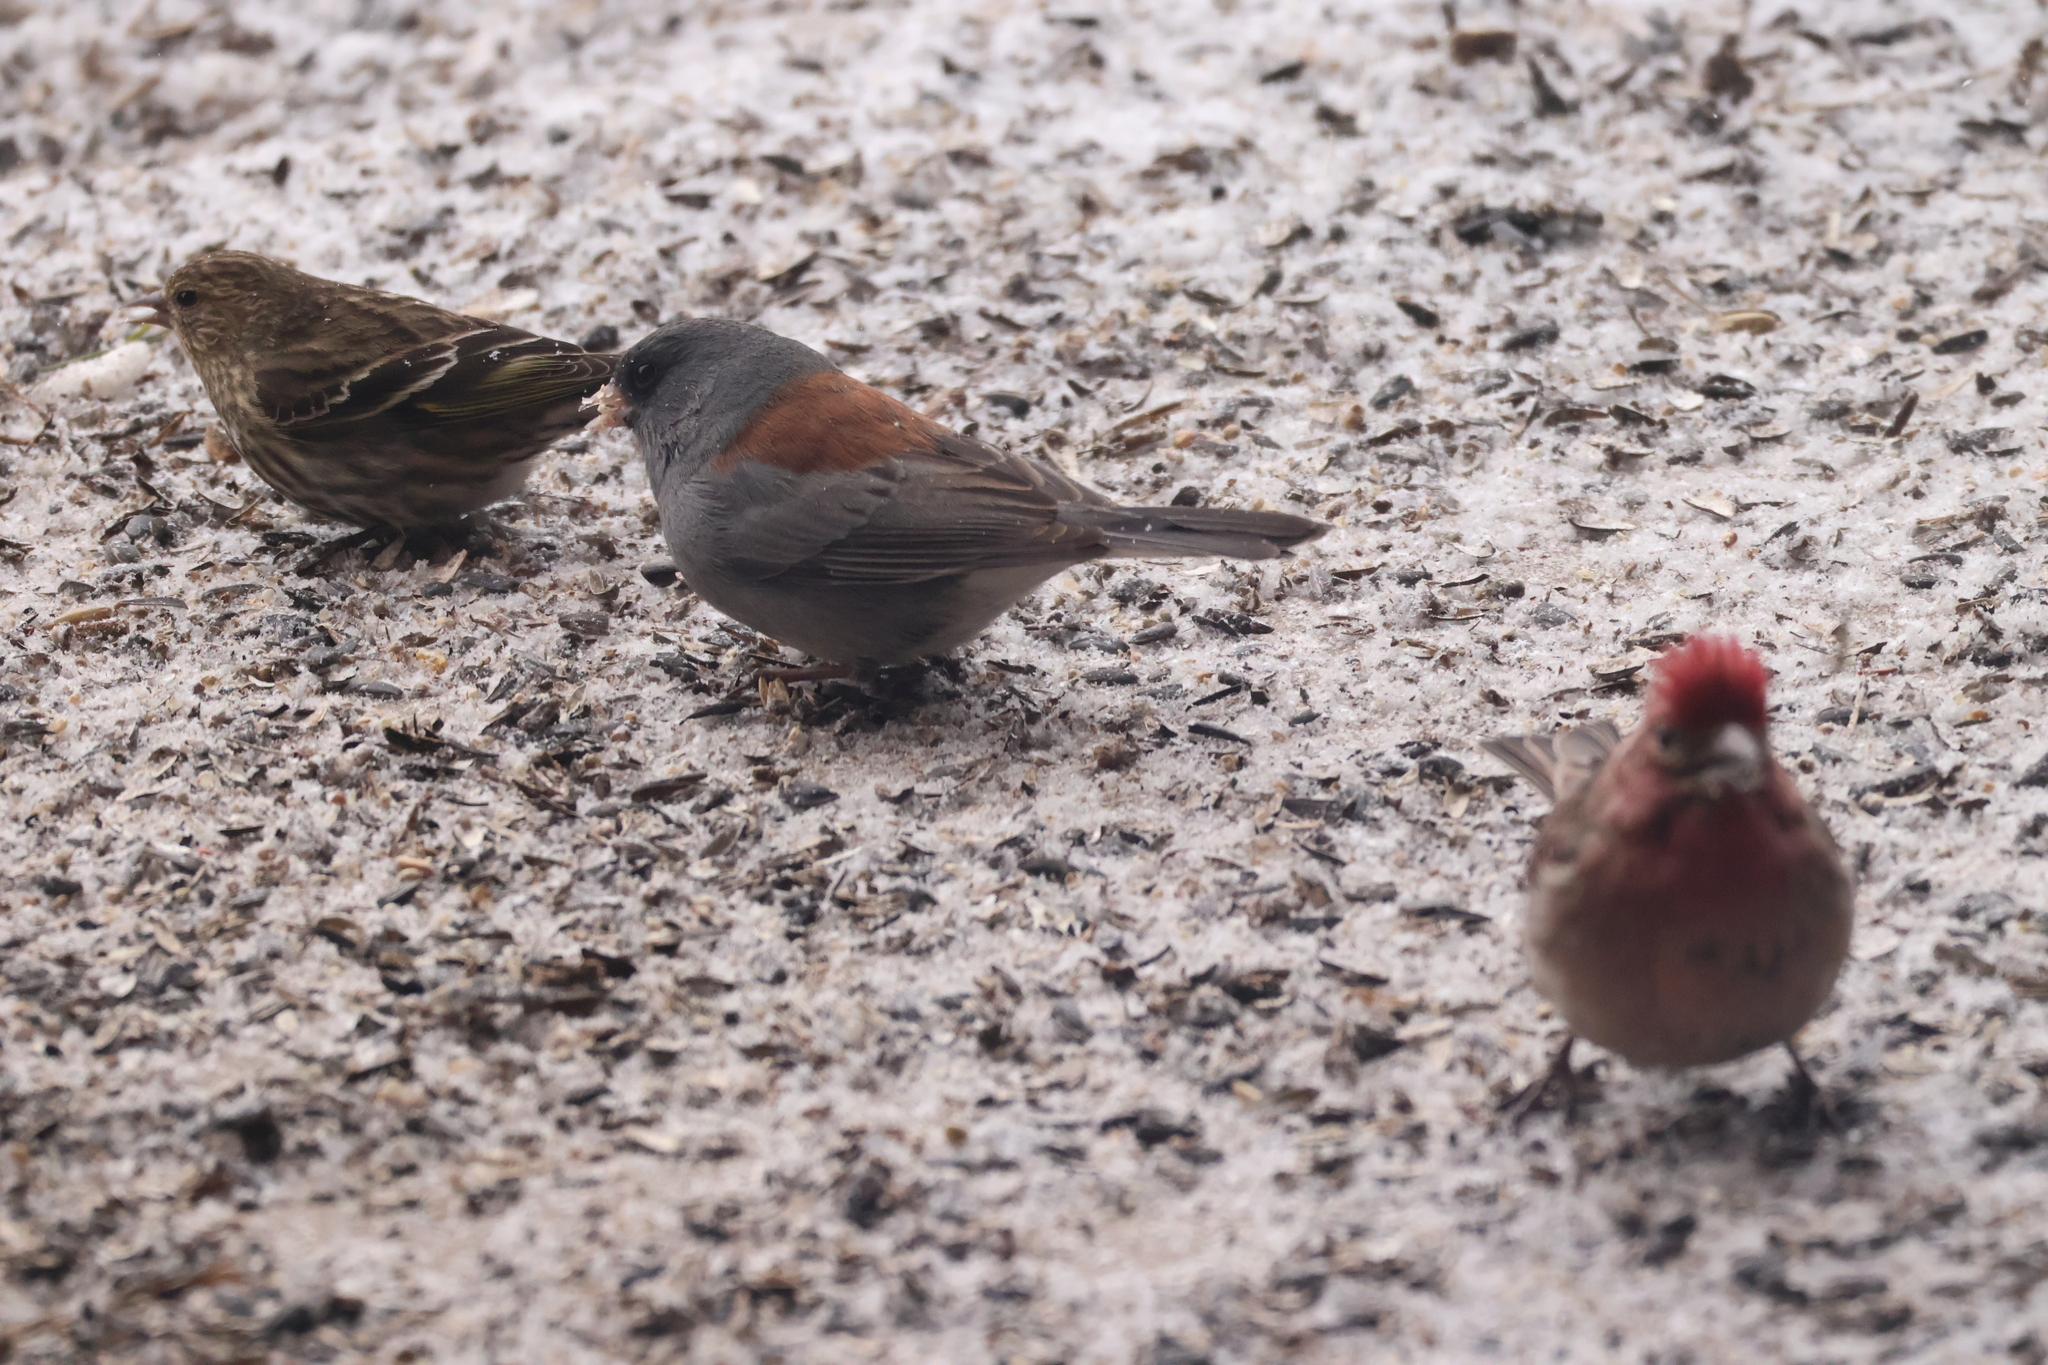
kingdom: Animalia
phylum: Chordata
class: Aves
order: Passeriformes
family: Passerellidae
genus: Junco
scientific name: Junco hyemalis
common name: Dark-eyed junco
